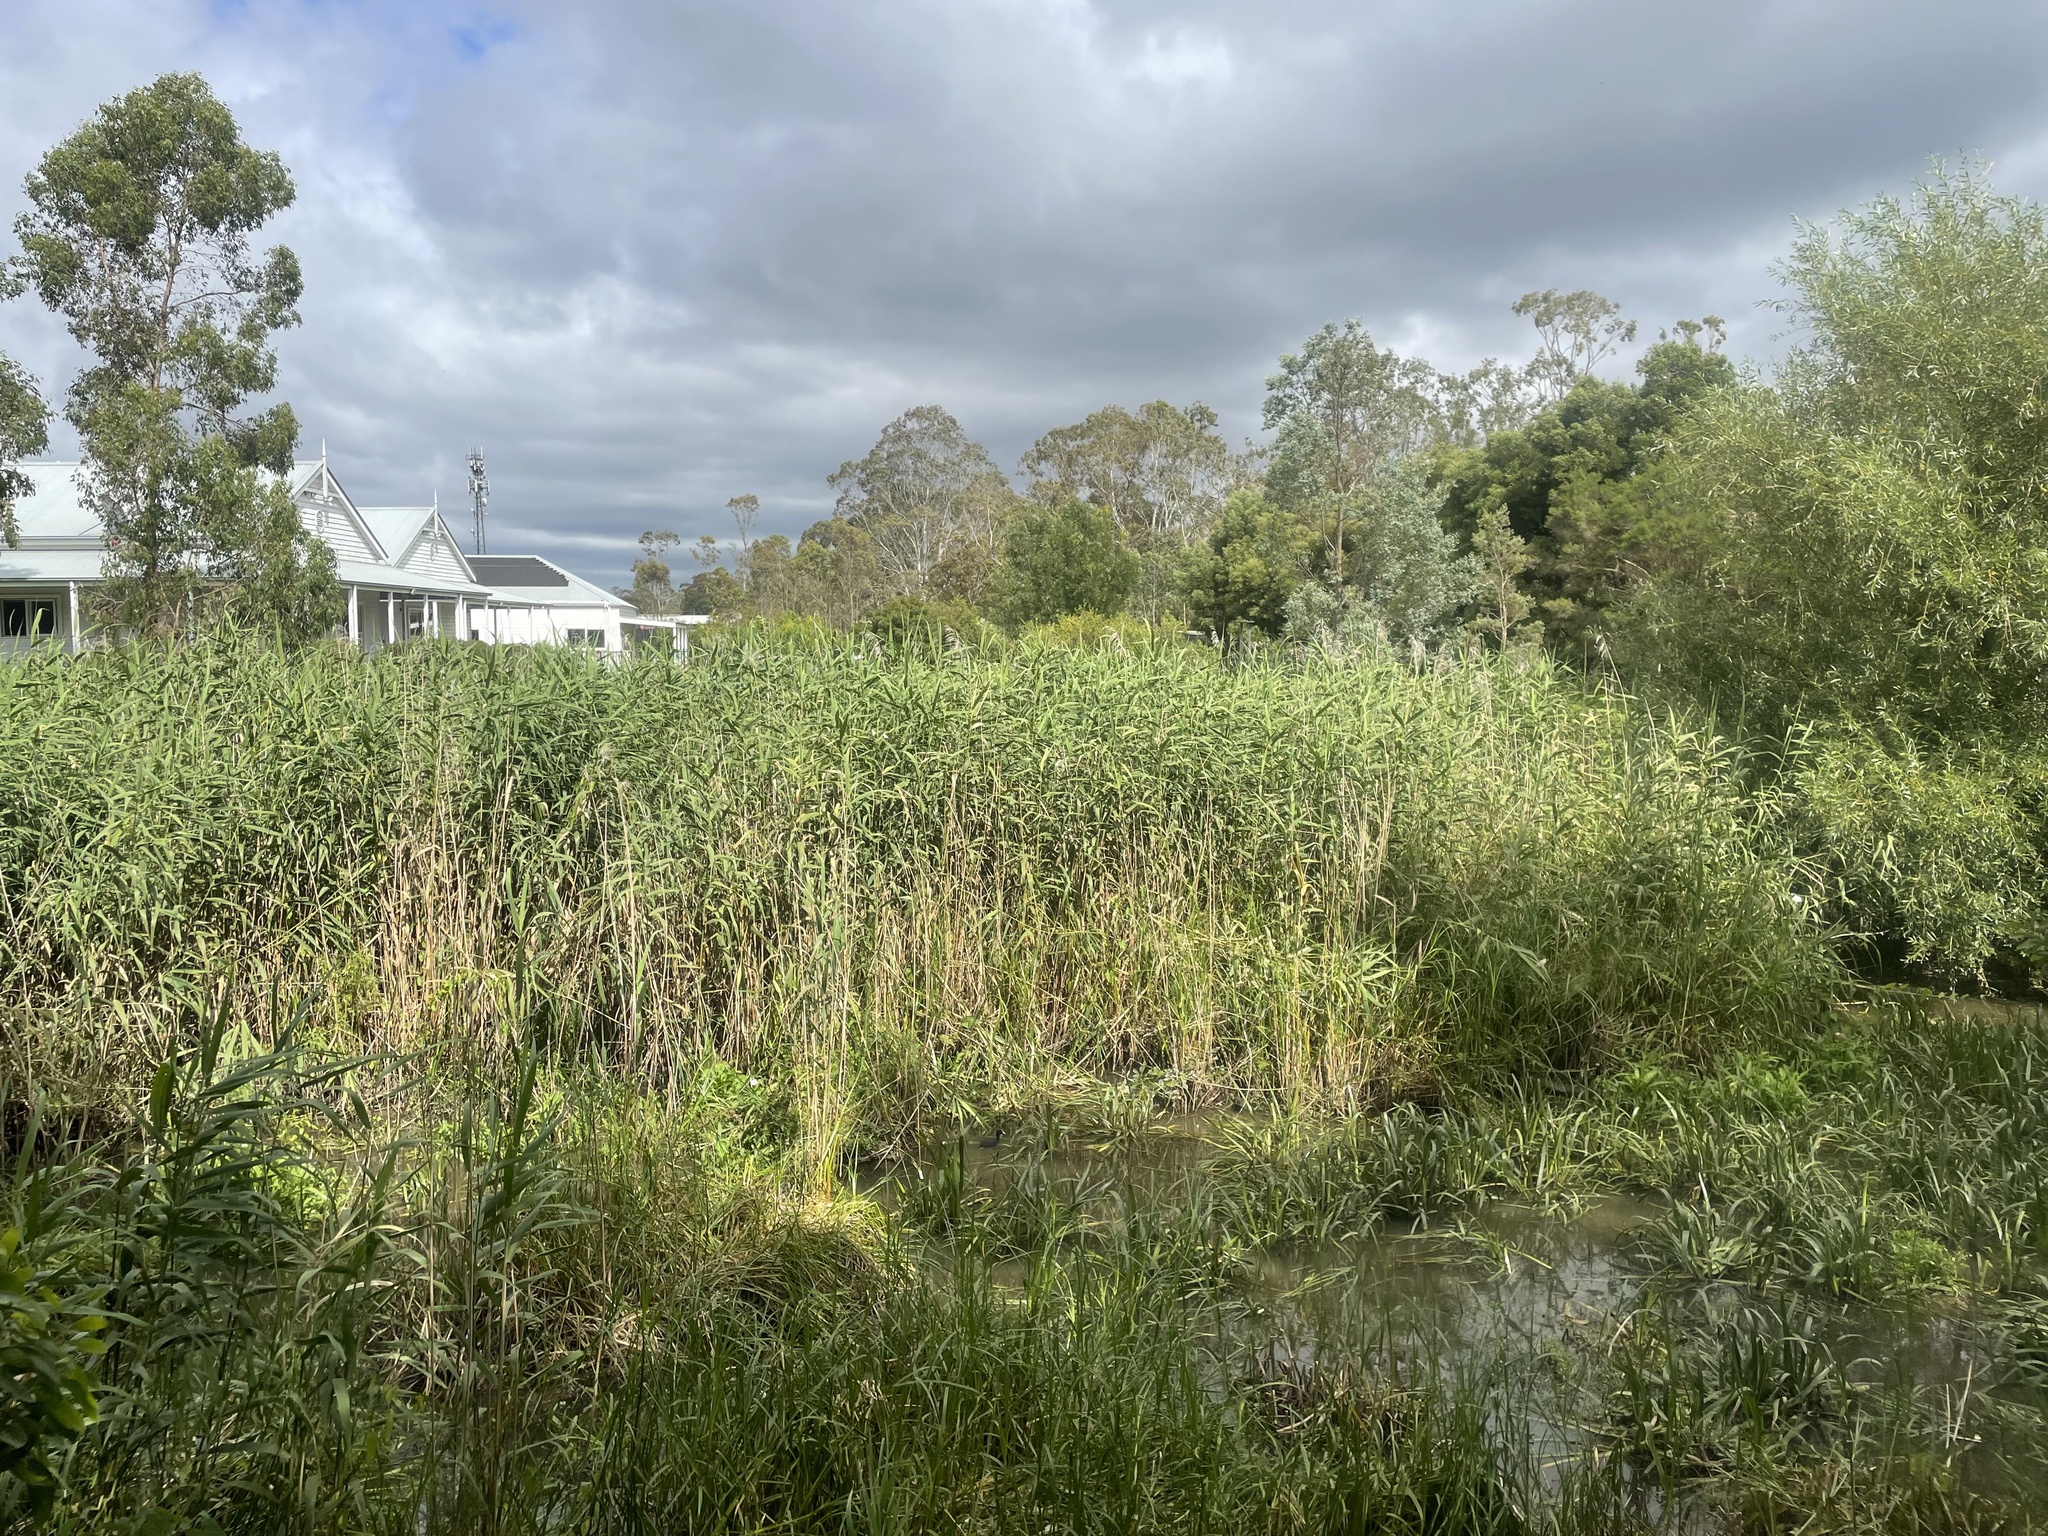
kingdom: Plantae
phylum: Tracheophyta
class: Liliopsida
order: Poales
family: Poaceae
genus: Phragmites
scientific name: Phragmites australis
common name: Common reed
